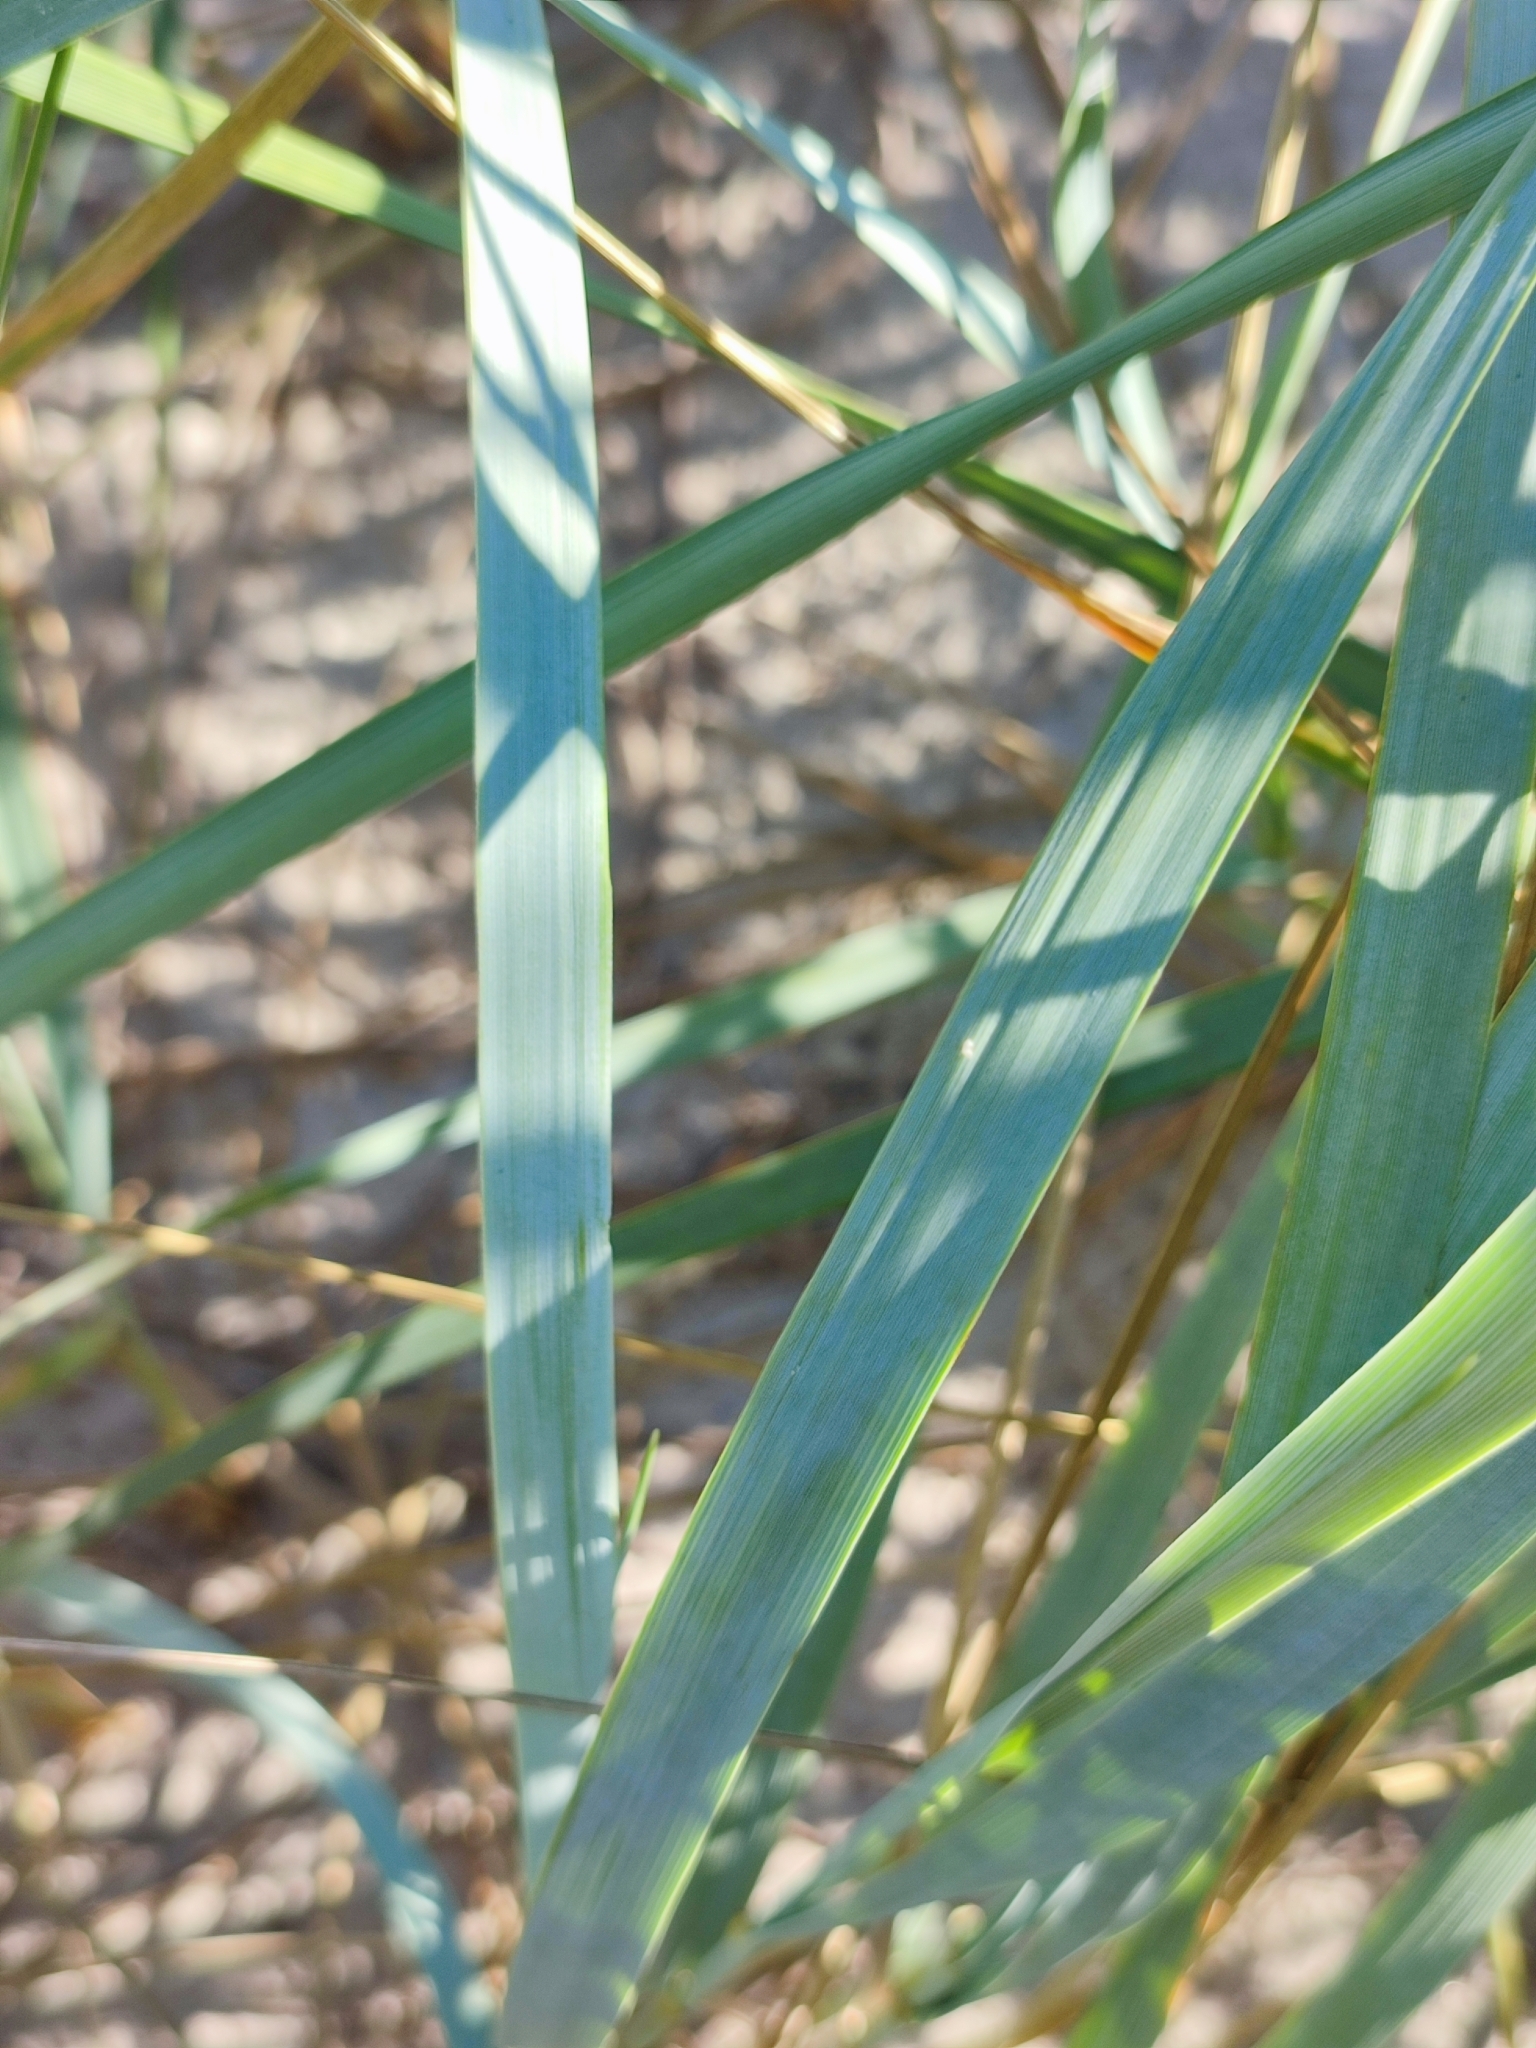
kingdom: Plantae
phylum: Tracheophyta
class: Liliopsida
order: Poales
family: Poaceae
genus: Leymus
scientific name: Leymus racemosus
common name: Mammoth wildrye
